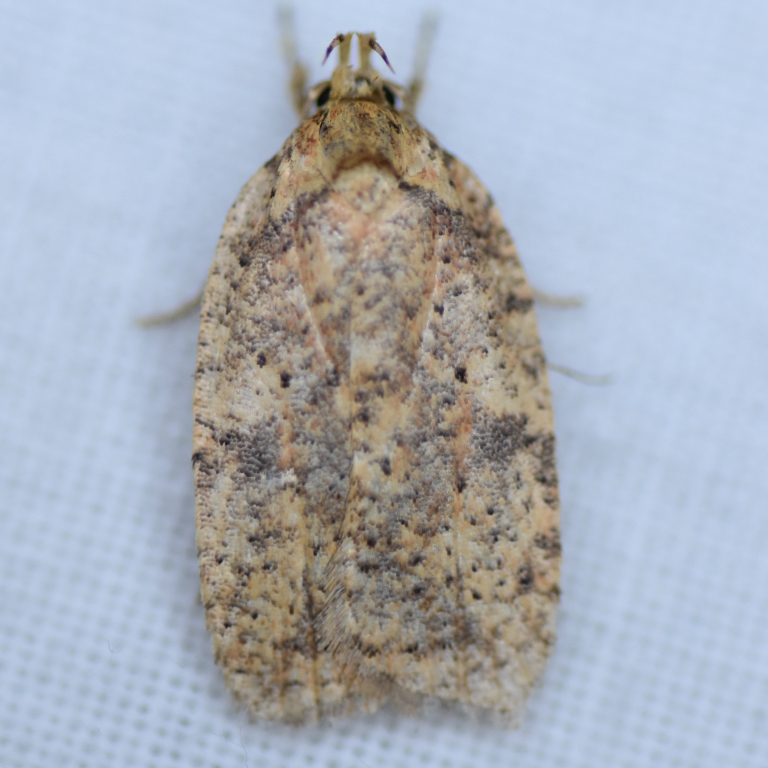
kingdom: Animalia
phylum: Arthropoda
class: Insecta
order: Lepidoptera
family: Depressariidae
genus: Agonopterix
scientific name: Agonopterix thelmae
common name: Thelma's agonopterix moth
